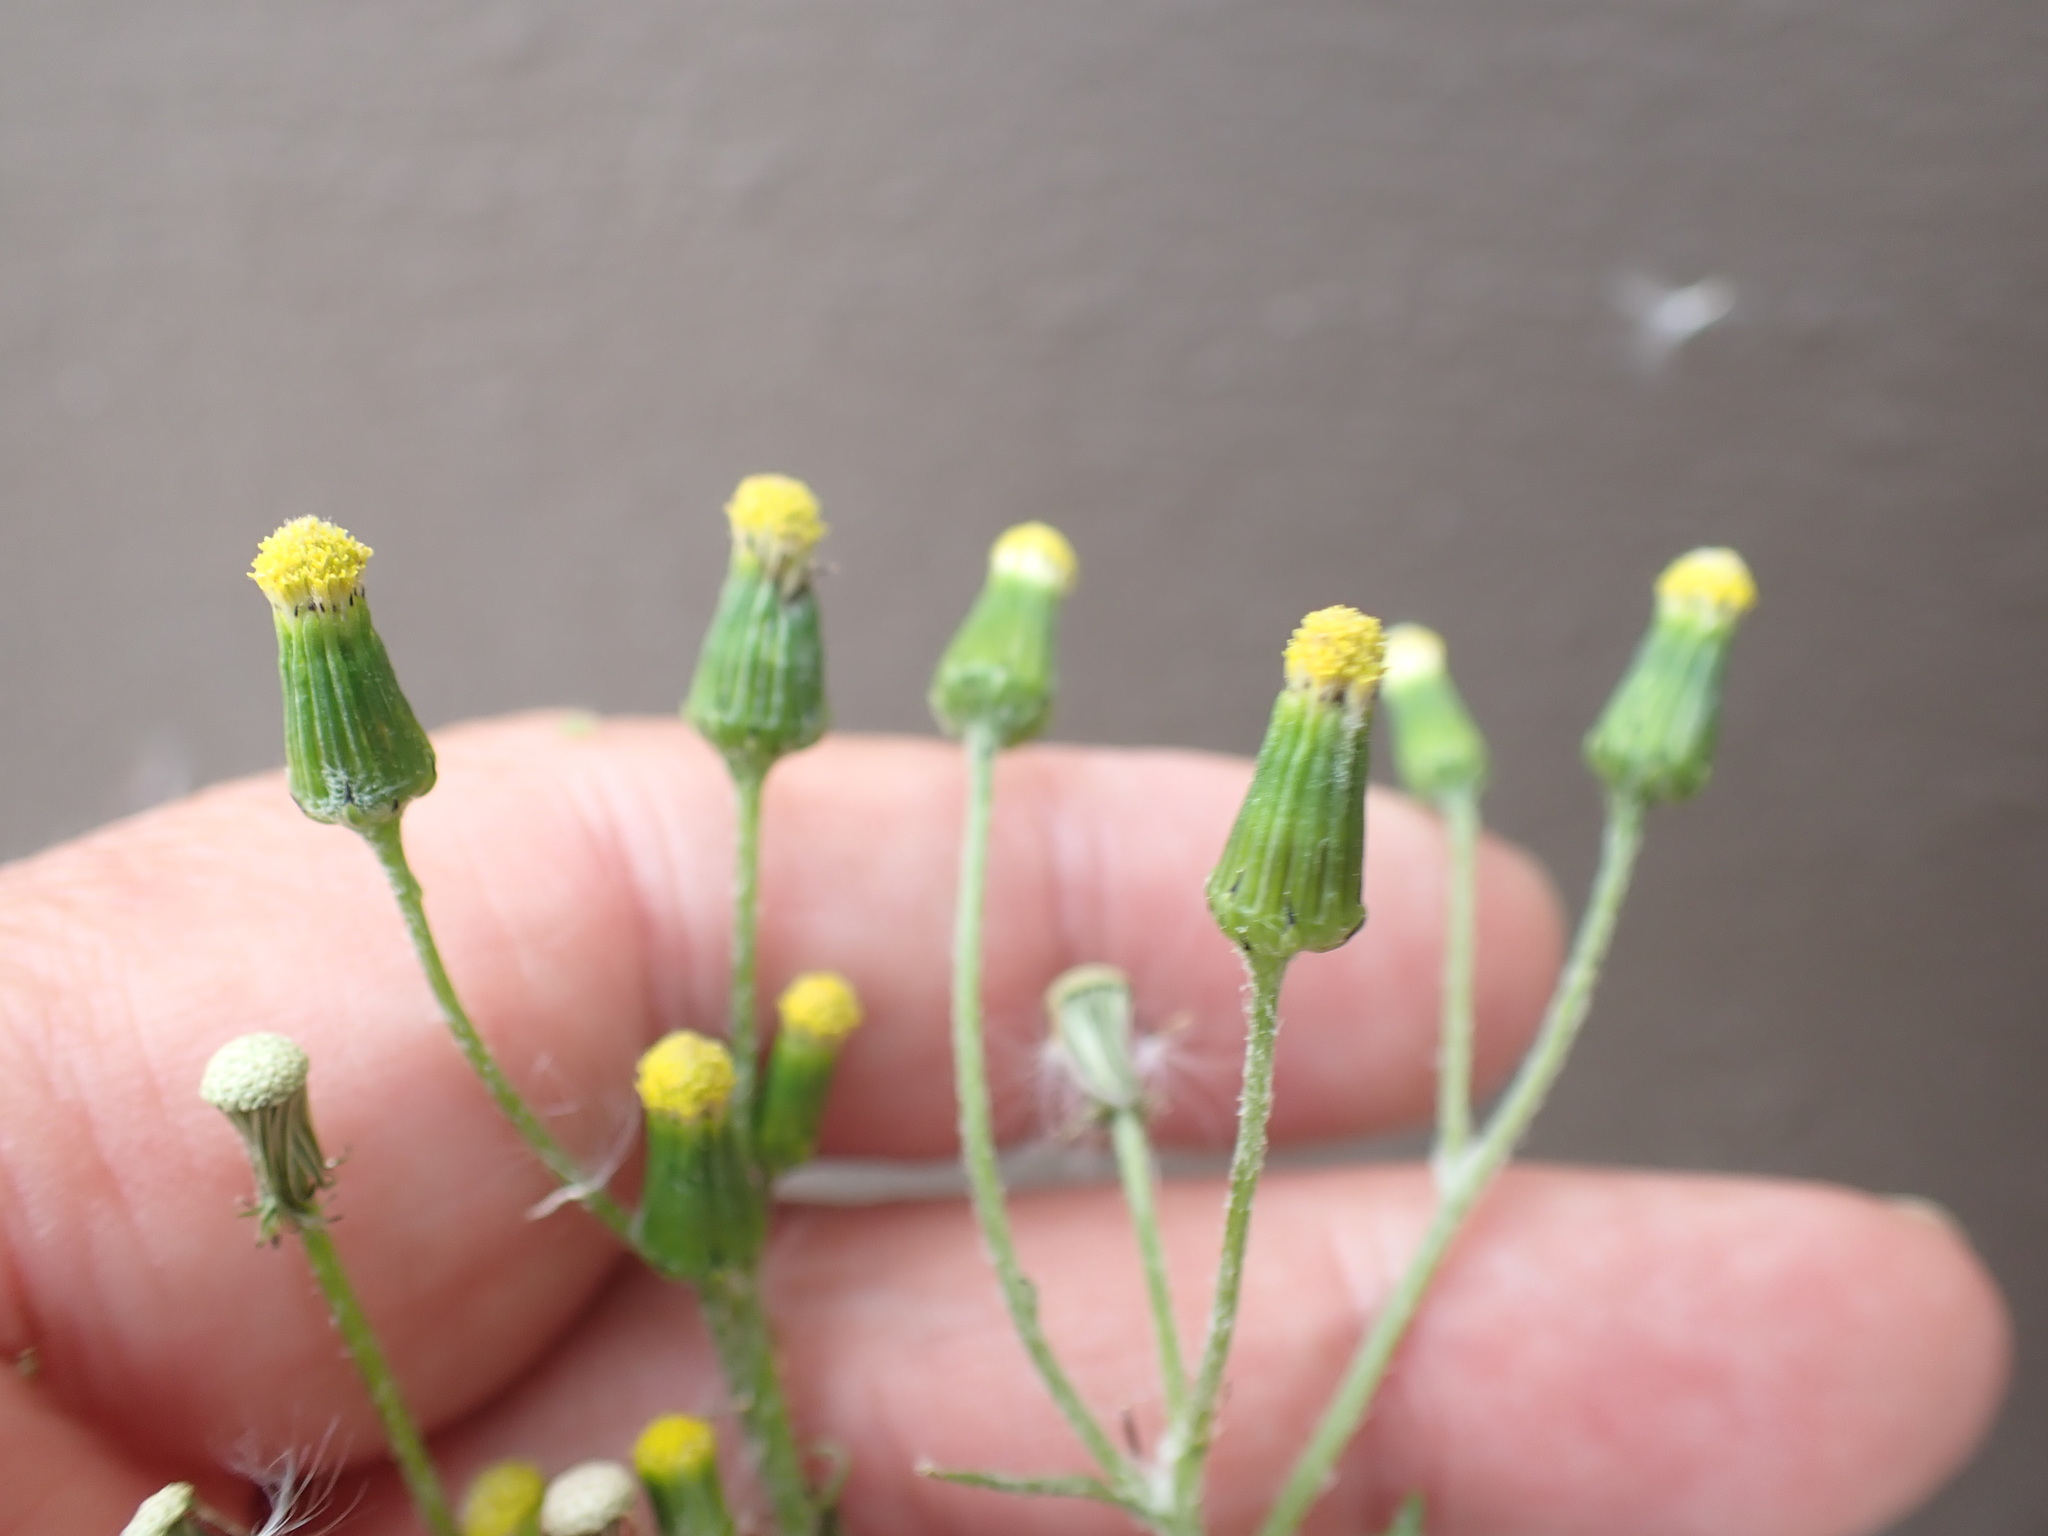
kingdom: Plantae
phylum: Tracheophyta
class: Magnoliopsida
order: Asterales
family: Asteraceae
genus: Senecio
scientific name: Senecio vulgaris
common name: Old-man-in-the-spring
